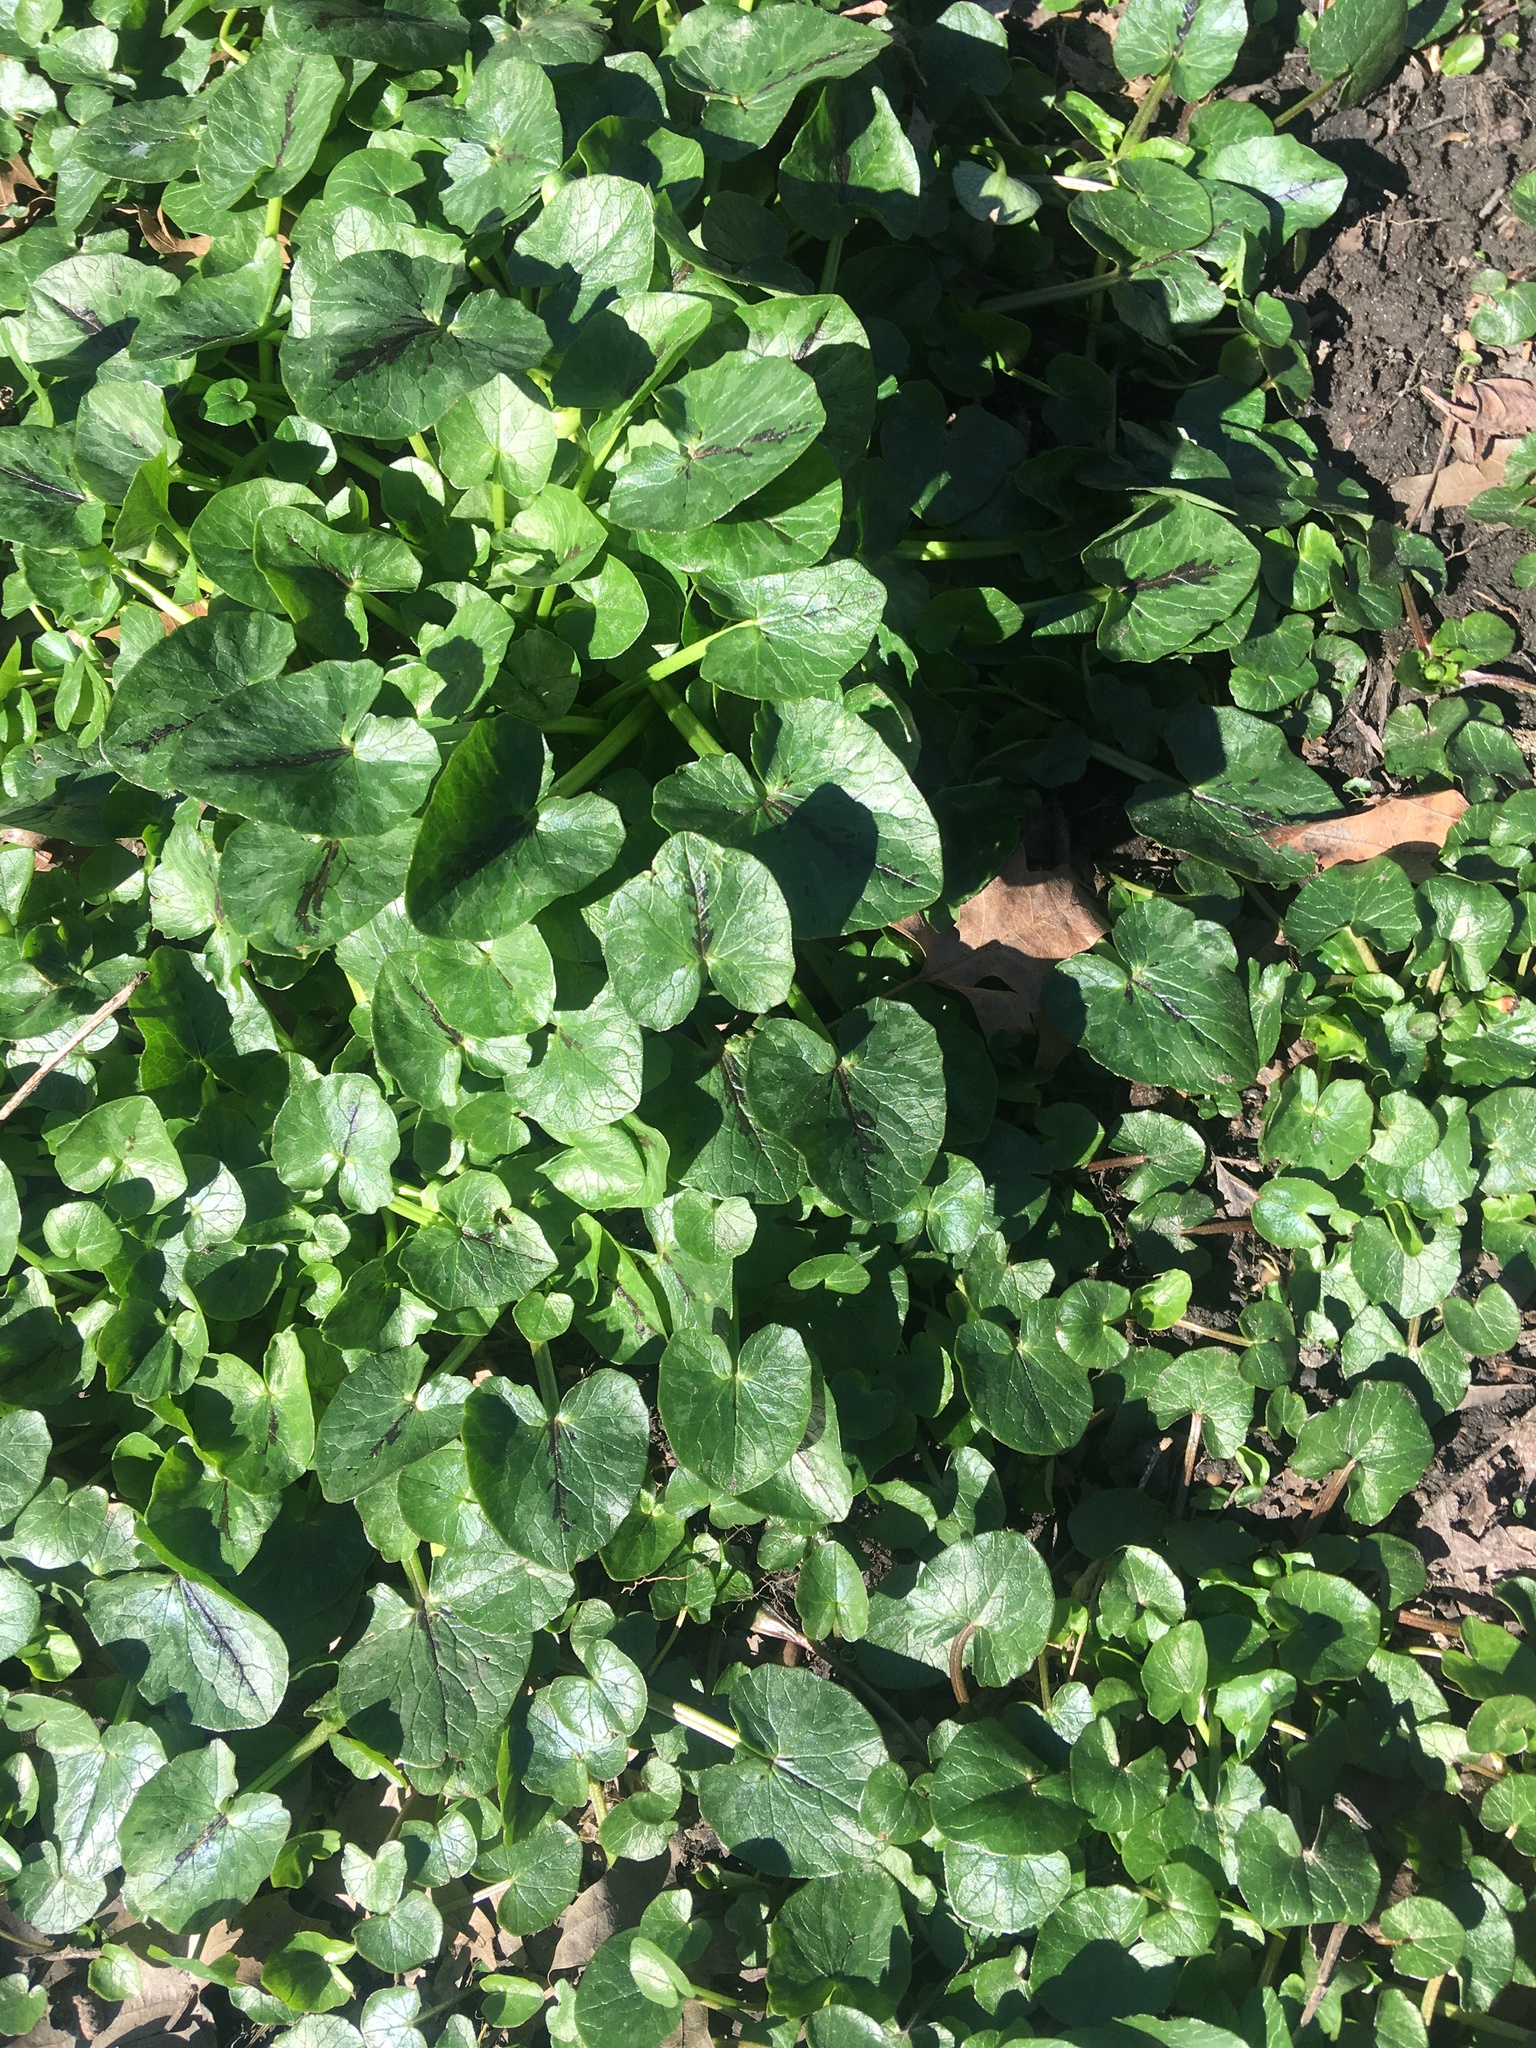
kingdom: Plantae
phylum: Tracheophyta
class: Magnoliopsida
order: Ranunculales
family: Ranunculaceae
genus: Ficaria
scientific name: Ficaria verna
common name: Lesser celandine
